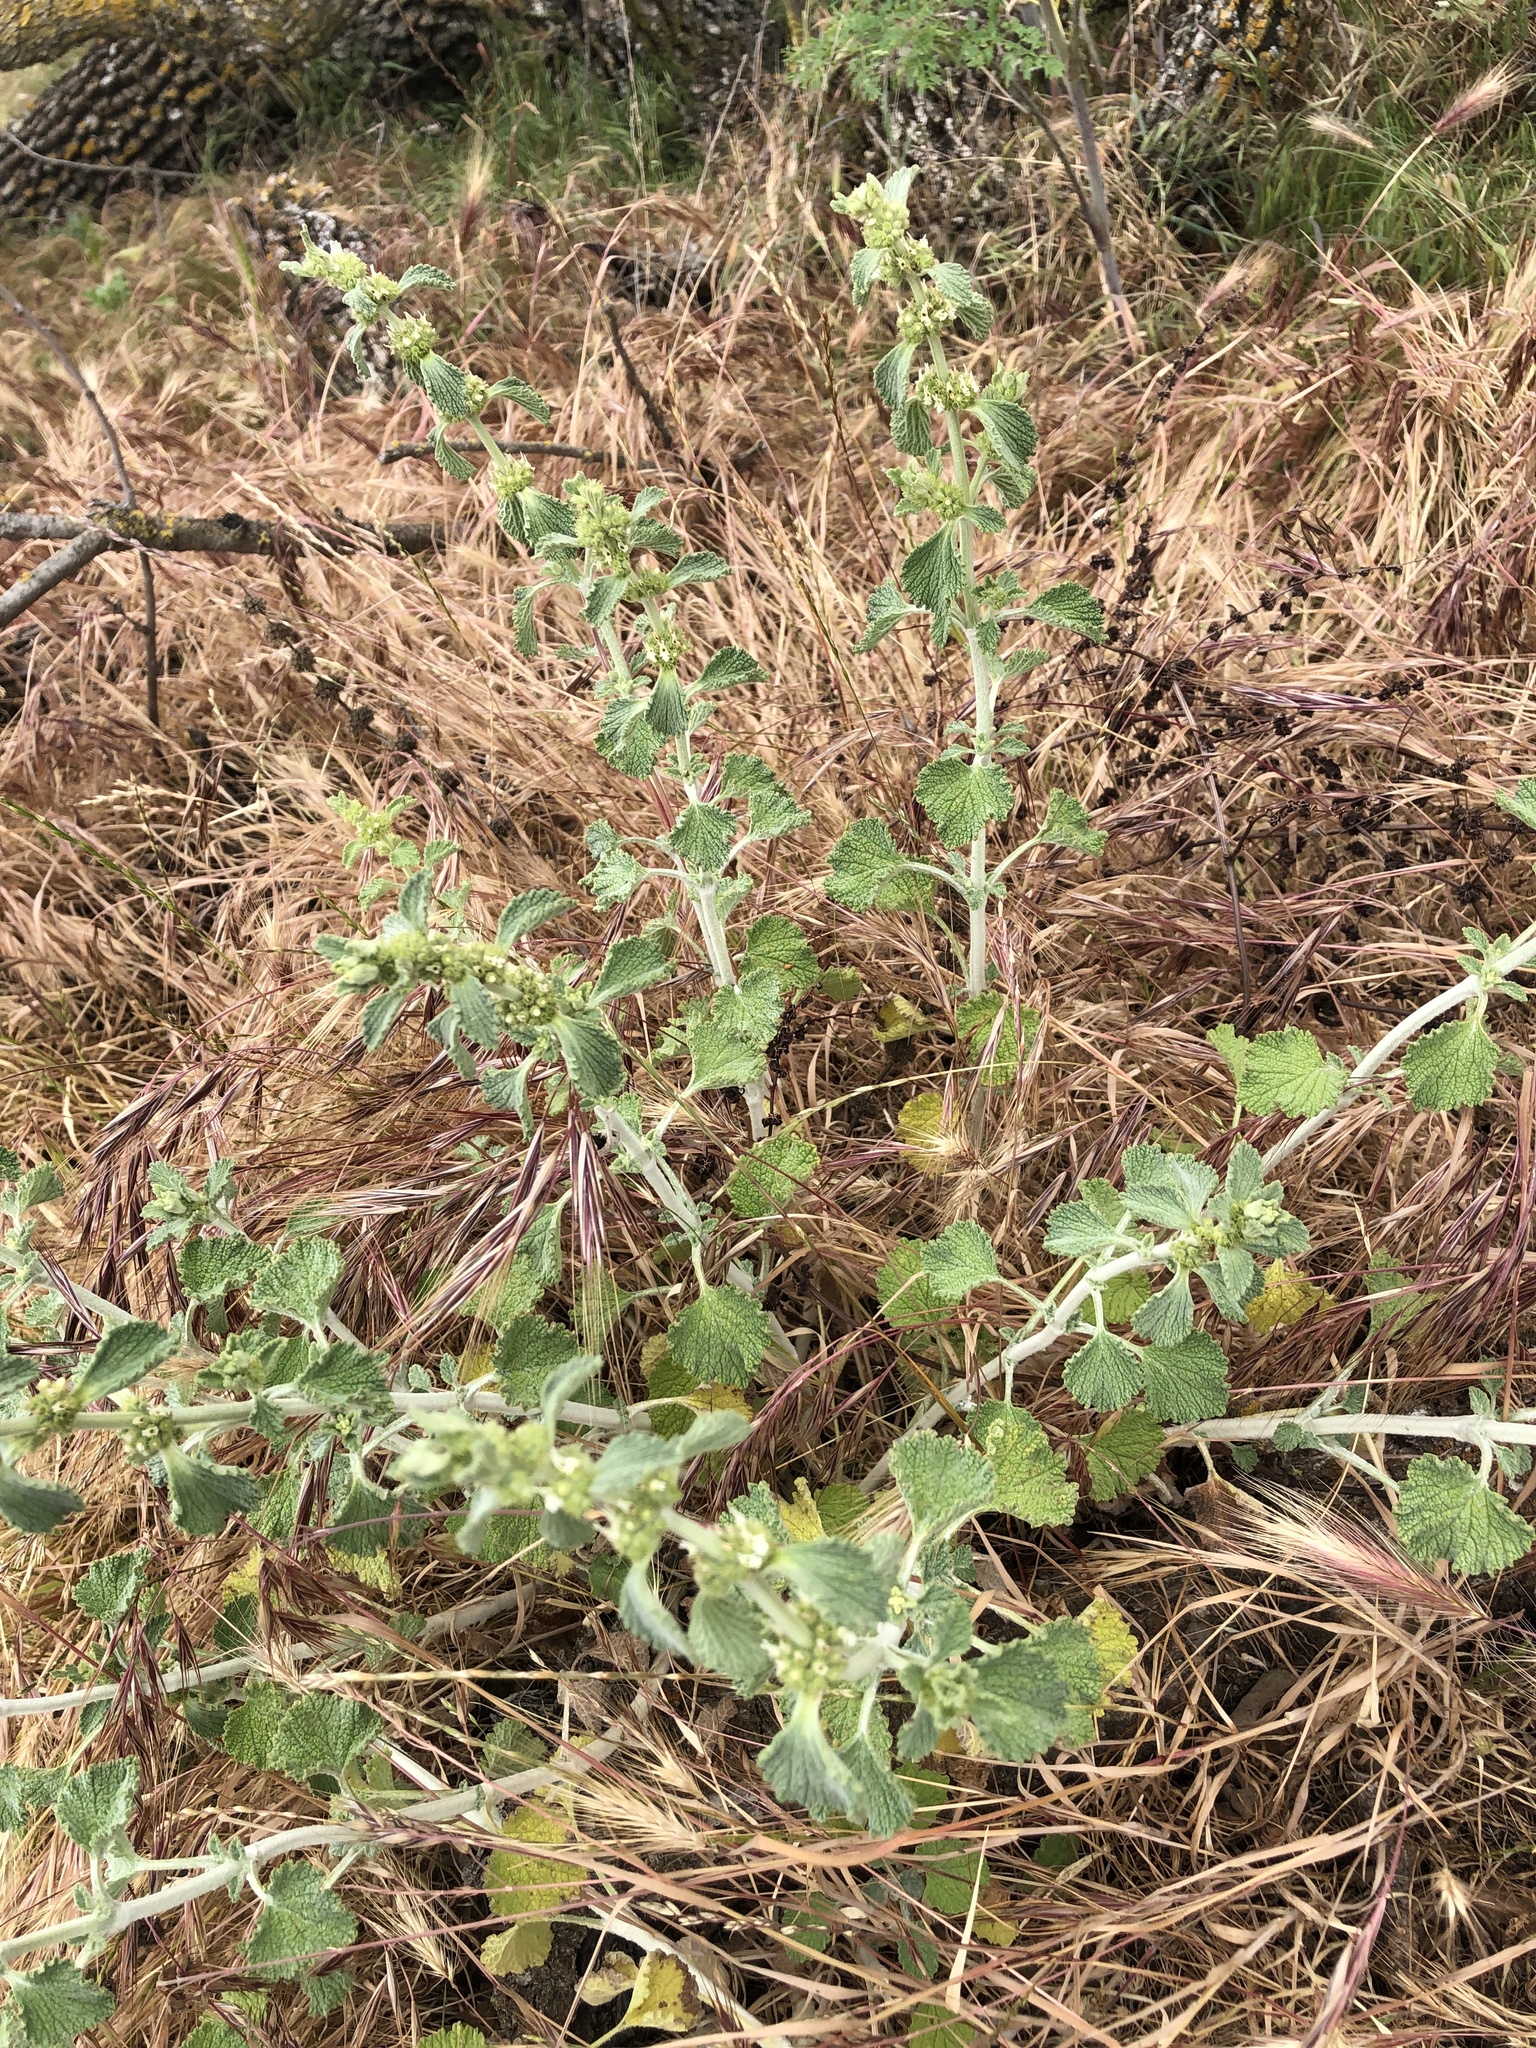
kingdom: Plantae
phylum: Tracheophyta
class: Magnoliopsida
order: Lamiales
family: Lamiaceae
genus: Marrubium
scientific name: Marrubium vulgare
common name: Horehound
